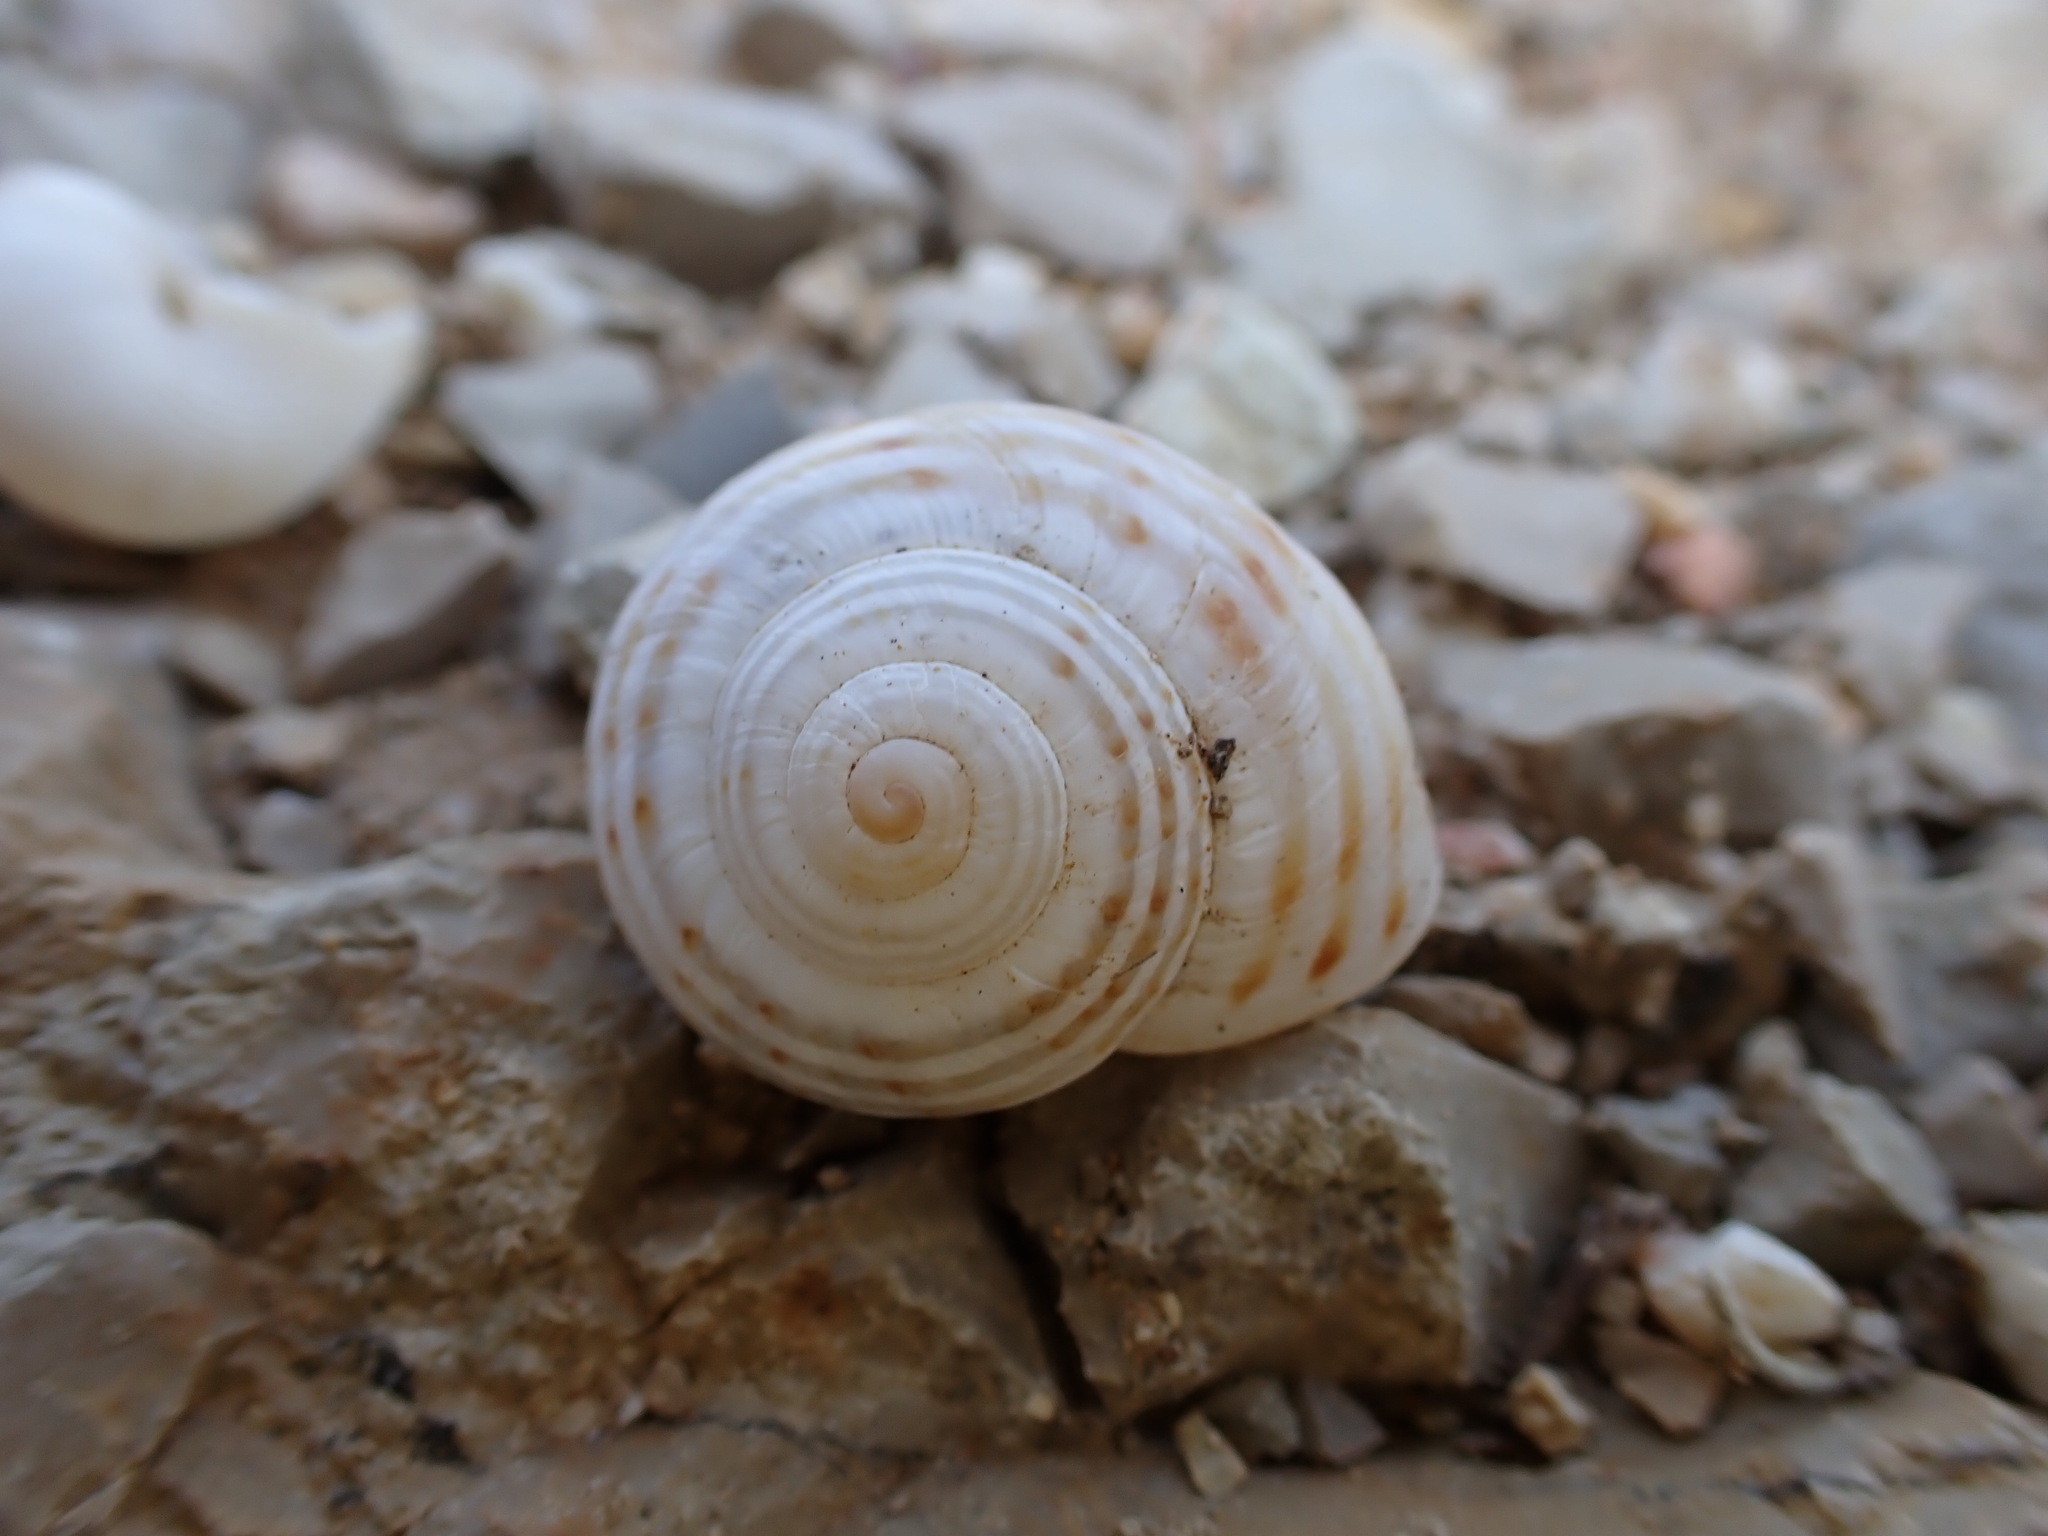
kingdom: Animalia
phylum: Mollusca
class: Gastropoda
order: Stylommatophora
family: Helicidae
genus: Pseudotachea
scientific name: Pseudotachea splendida
